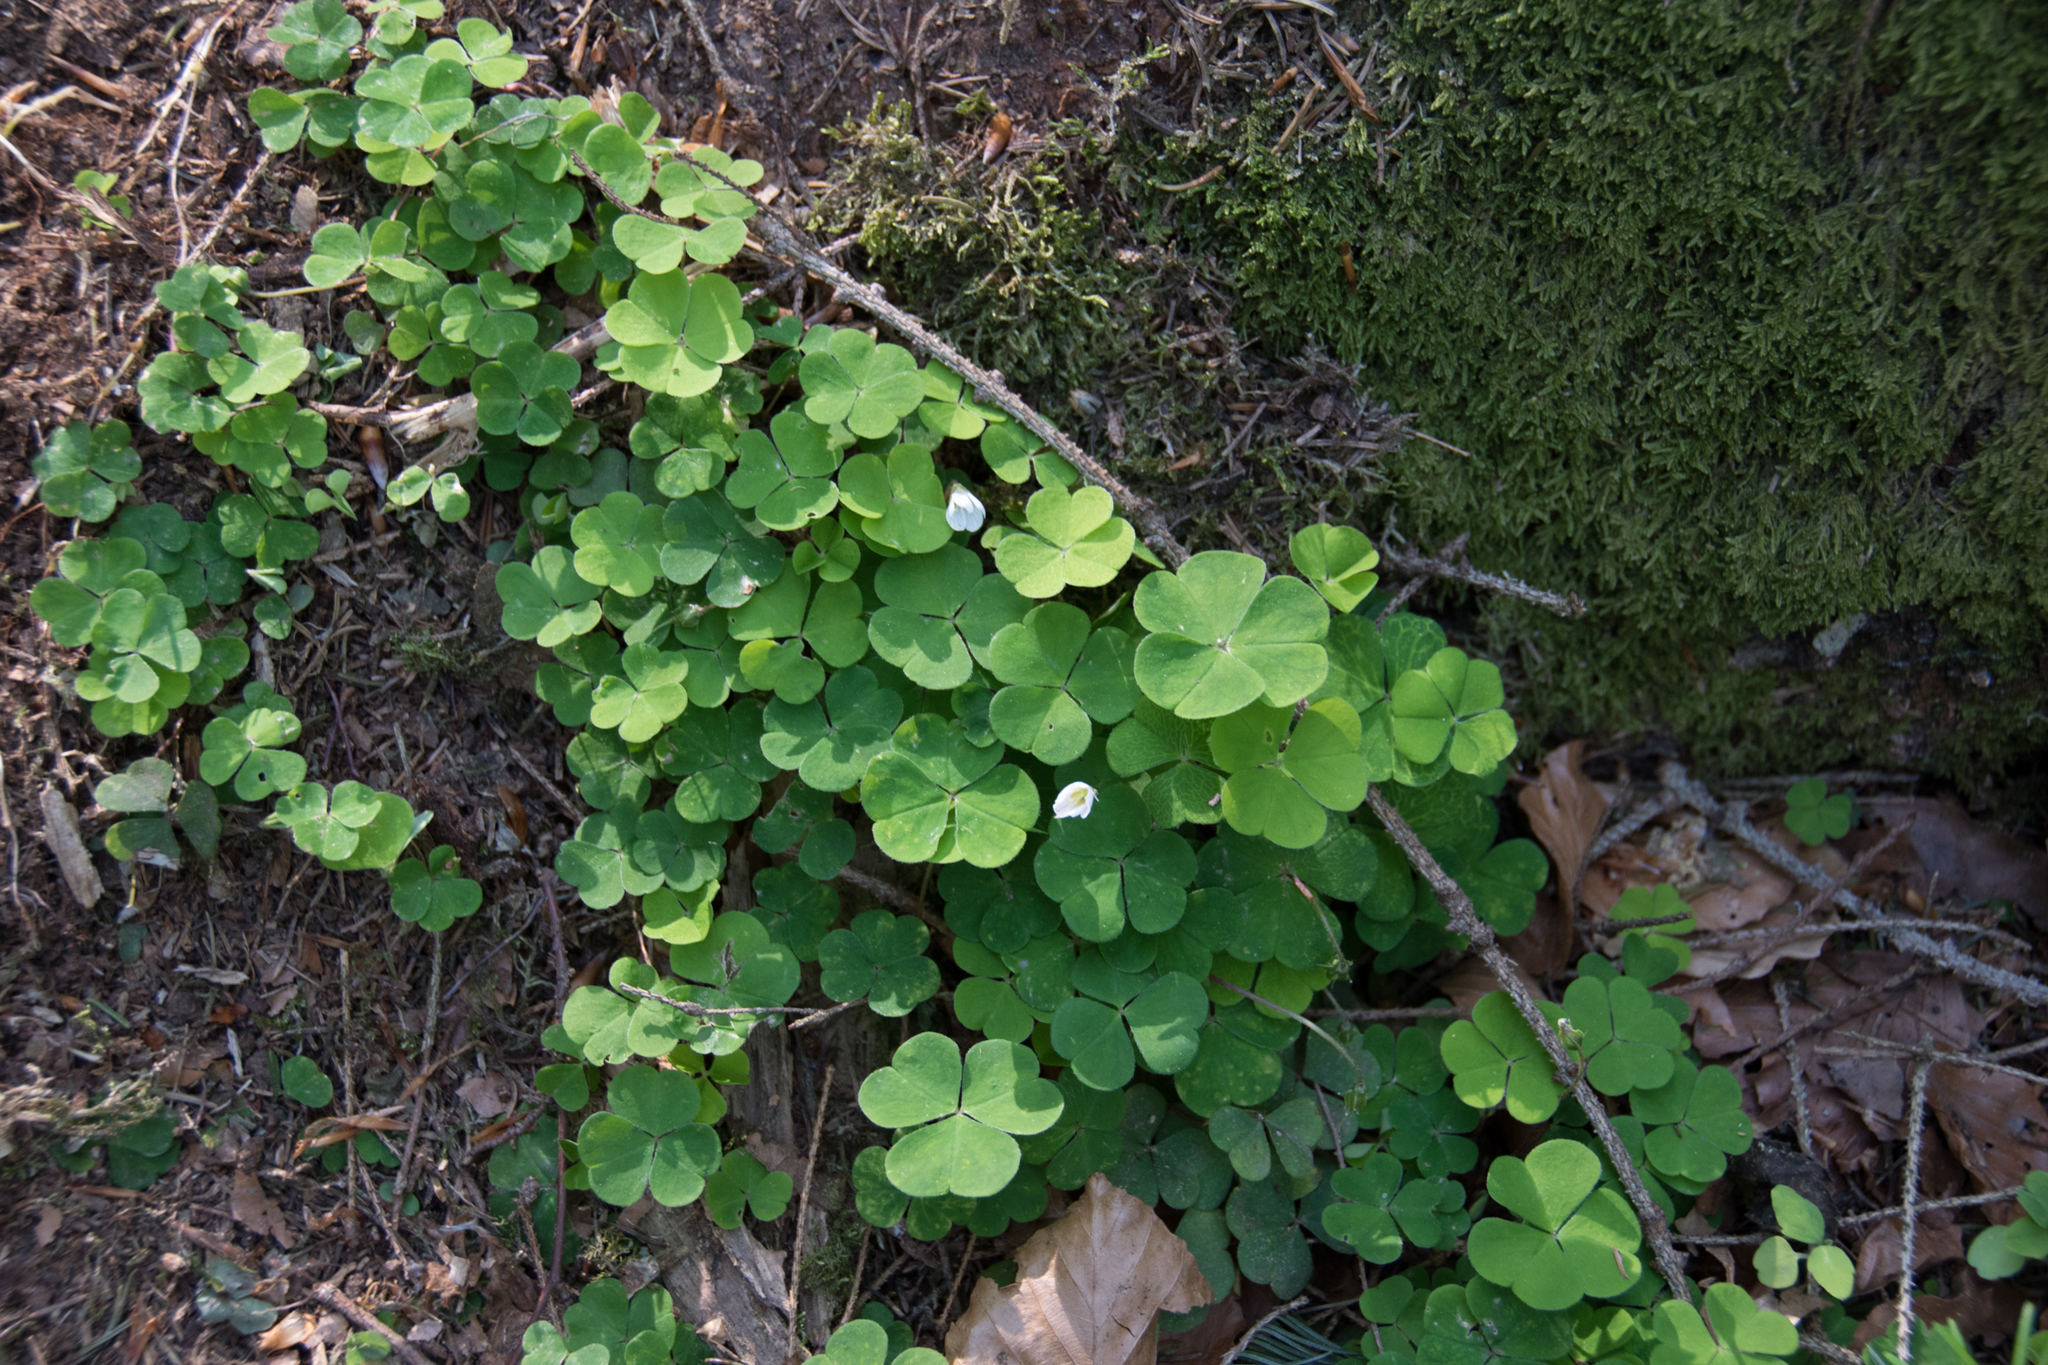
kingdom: Plantae
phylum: Tracheophyta
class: Magnoliopsida
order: Oxalidales
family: Oxalidaceae
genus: Oxalis
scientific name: Oxalis acetosella
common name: Wood-sorrel
